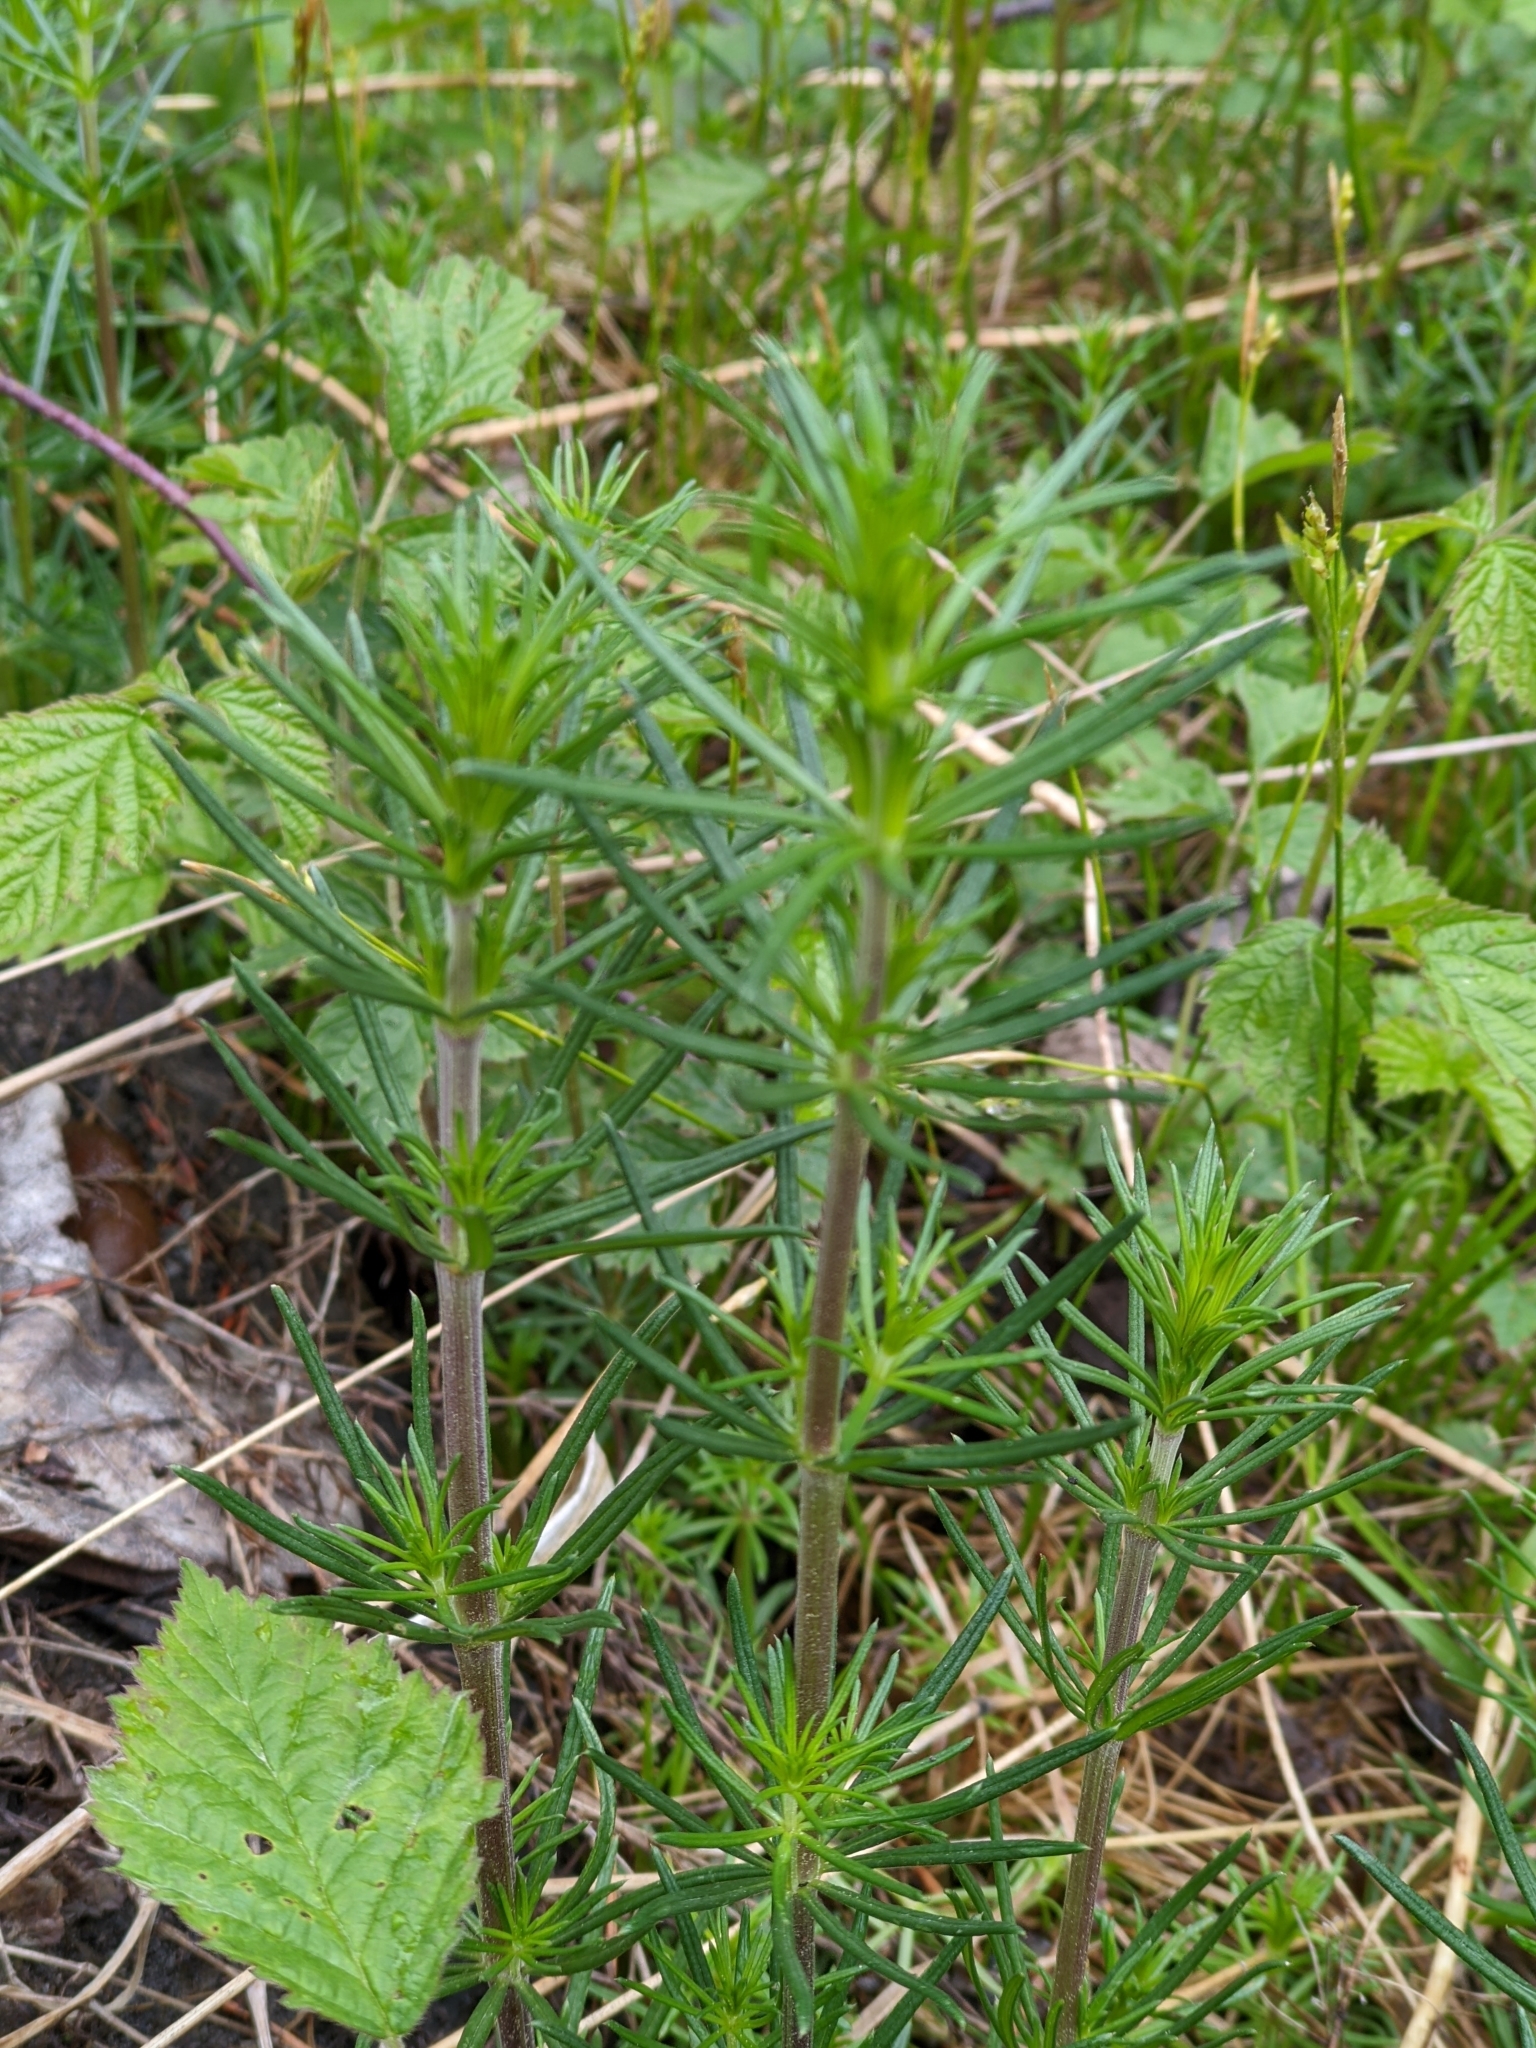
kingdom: Plantae
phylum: Tracheophyta
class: Magnoliopsida
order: Gentianales
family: Rubiaceae
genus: Galium
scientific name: Galium verum
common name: Lady's bedstraw
